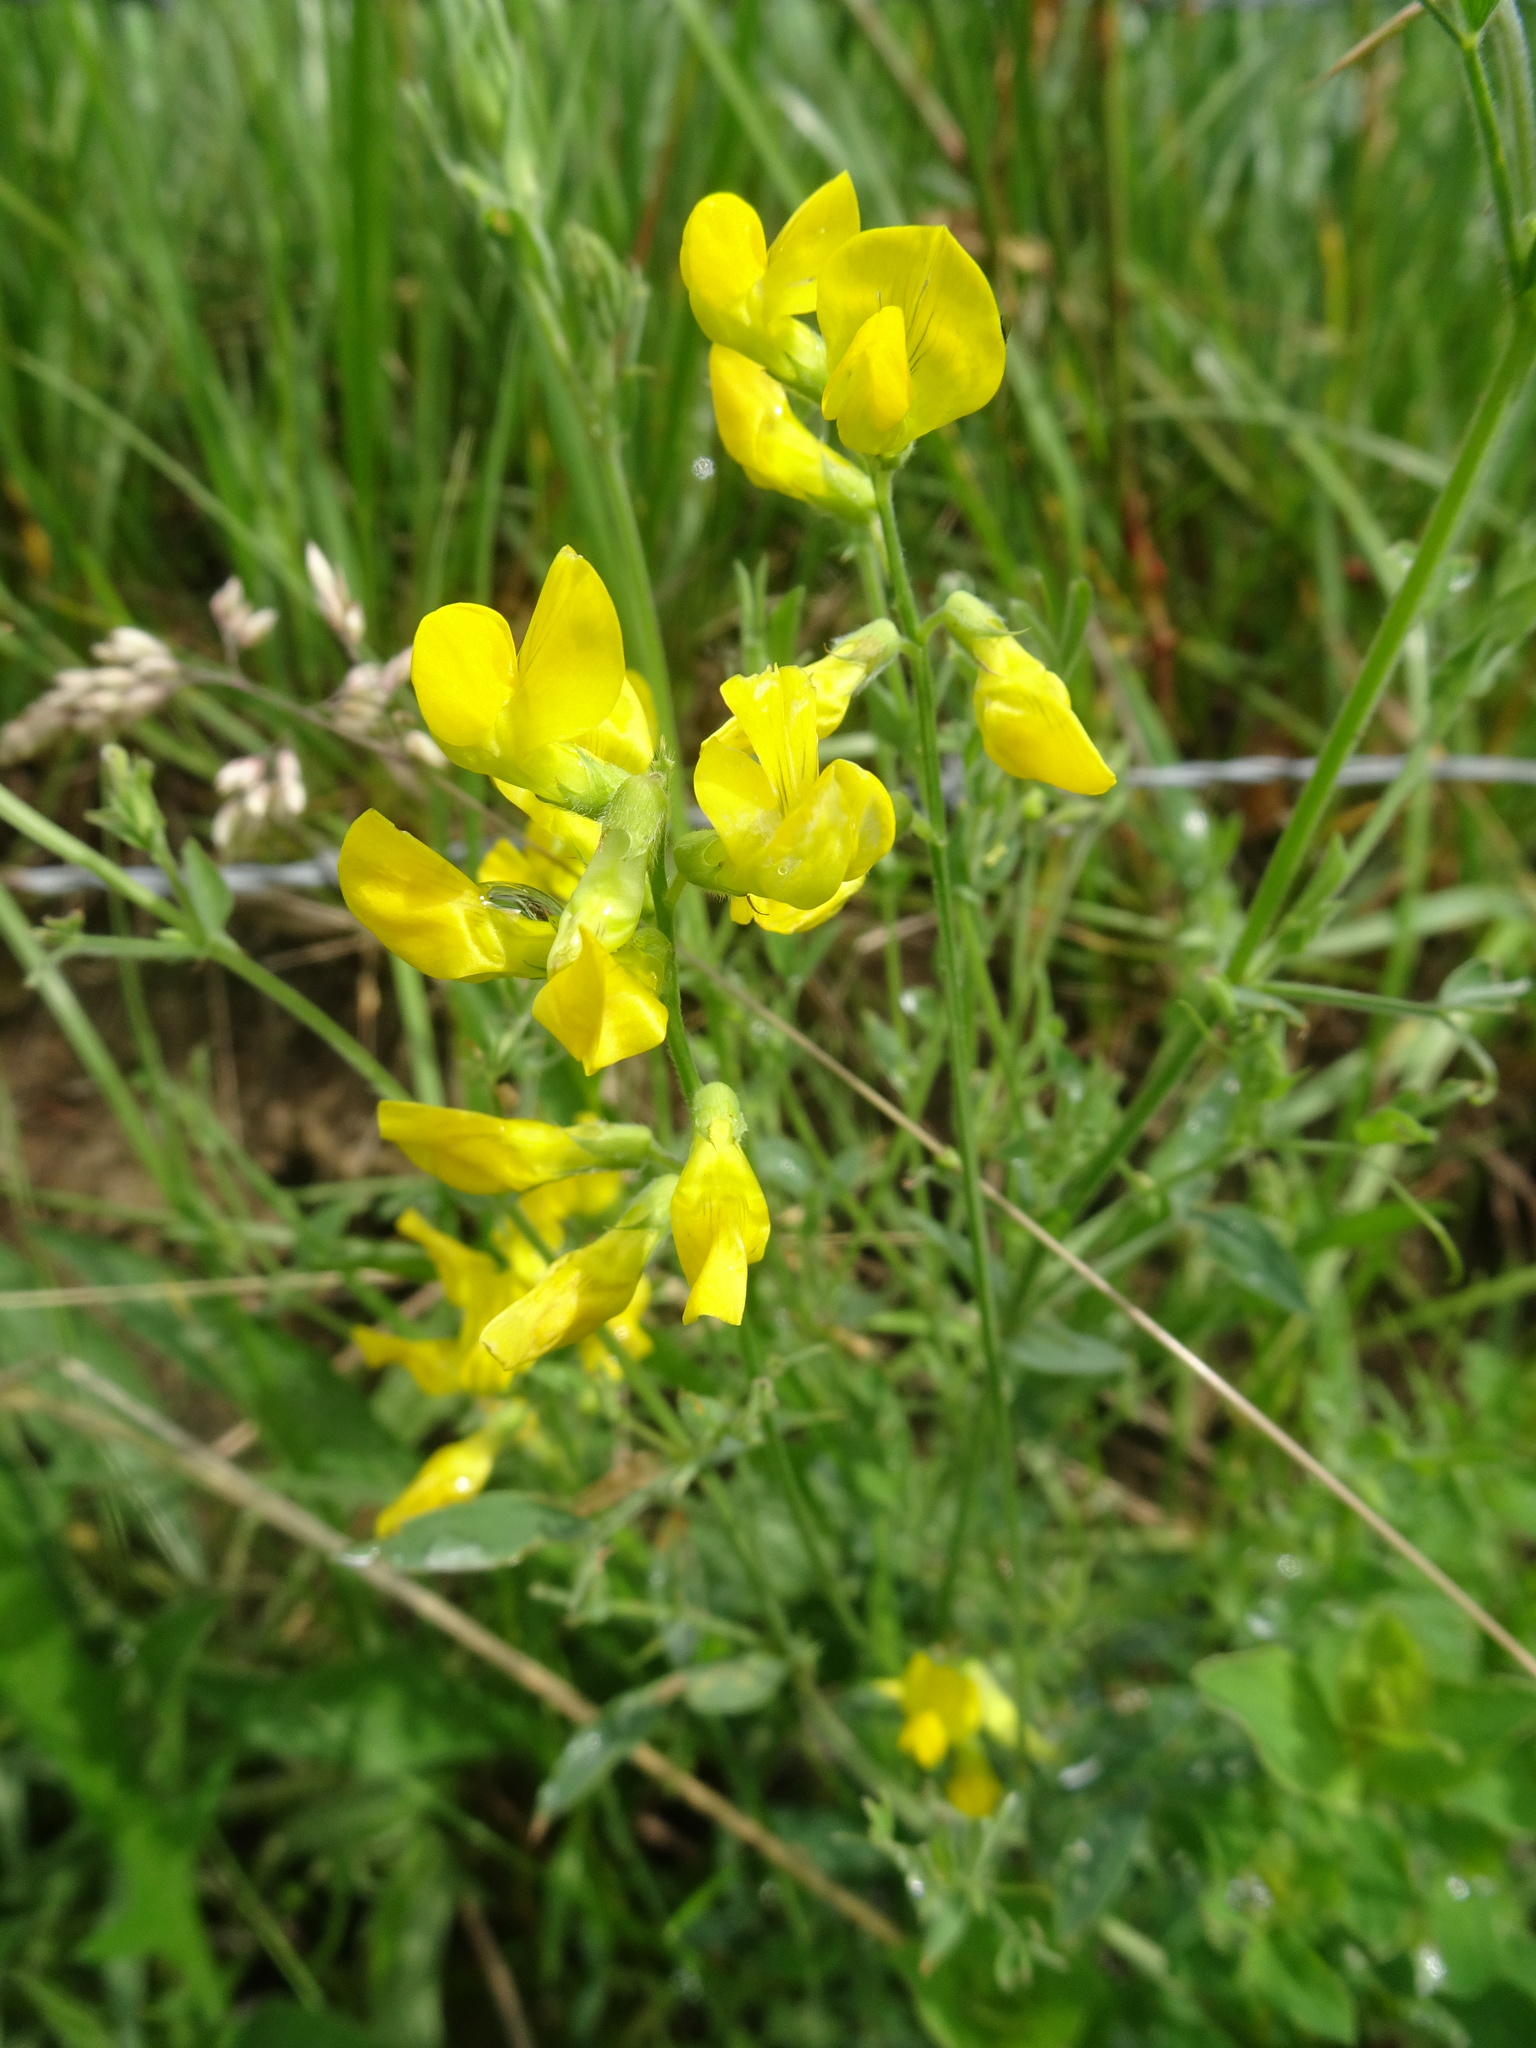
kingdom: Plantae
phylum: Tracheophyta
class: Magnoliopsida
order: Fabales
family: Fabaceae
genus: Lathyrus
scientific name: Lathyrus pratensis
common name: Meadow vetchling
